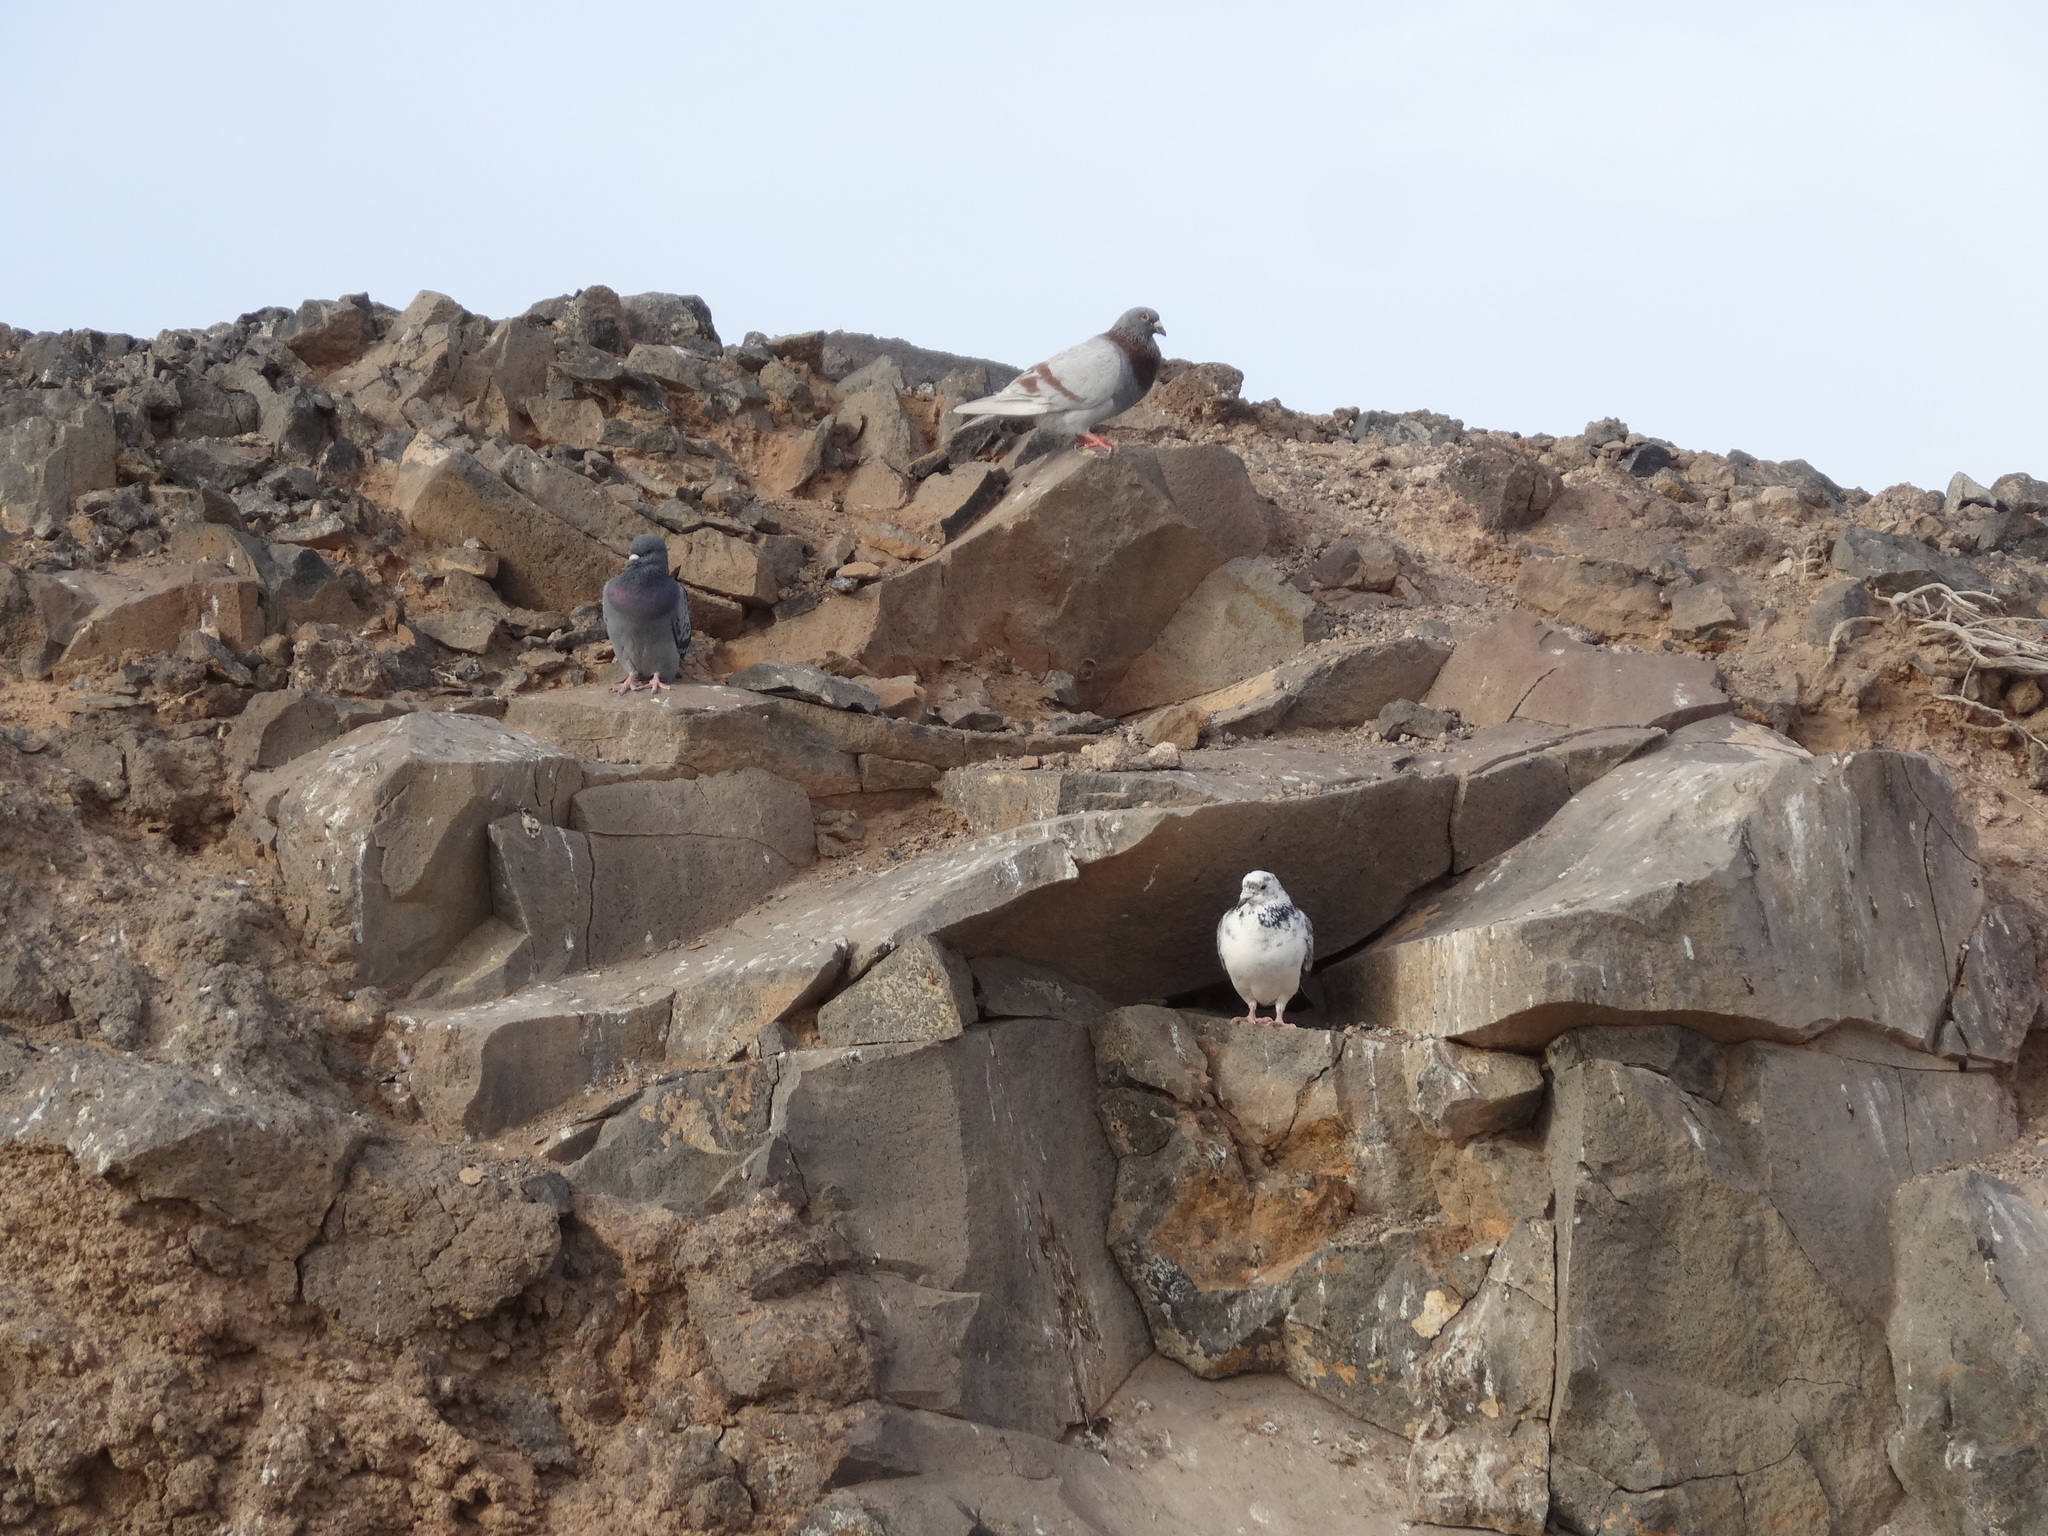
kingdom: Animalia
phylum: Chordata
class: Aves
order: Columbiformes
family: Columbidae
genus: Columba
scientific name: Columba livia
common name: Rock pigeon
